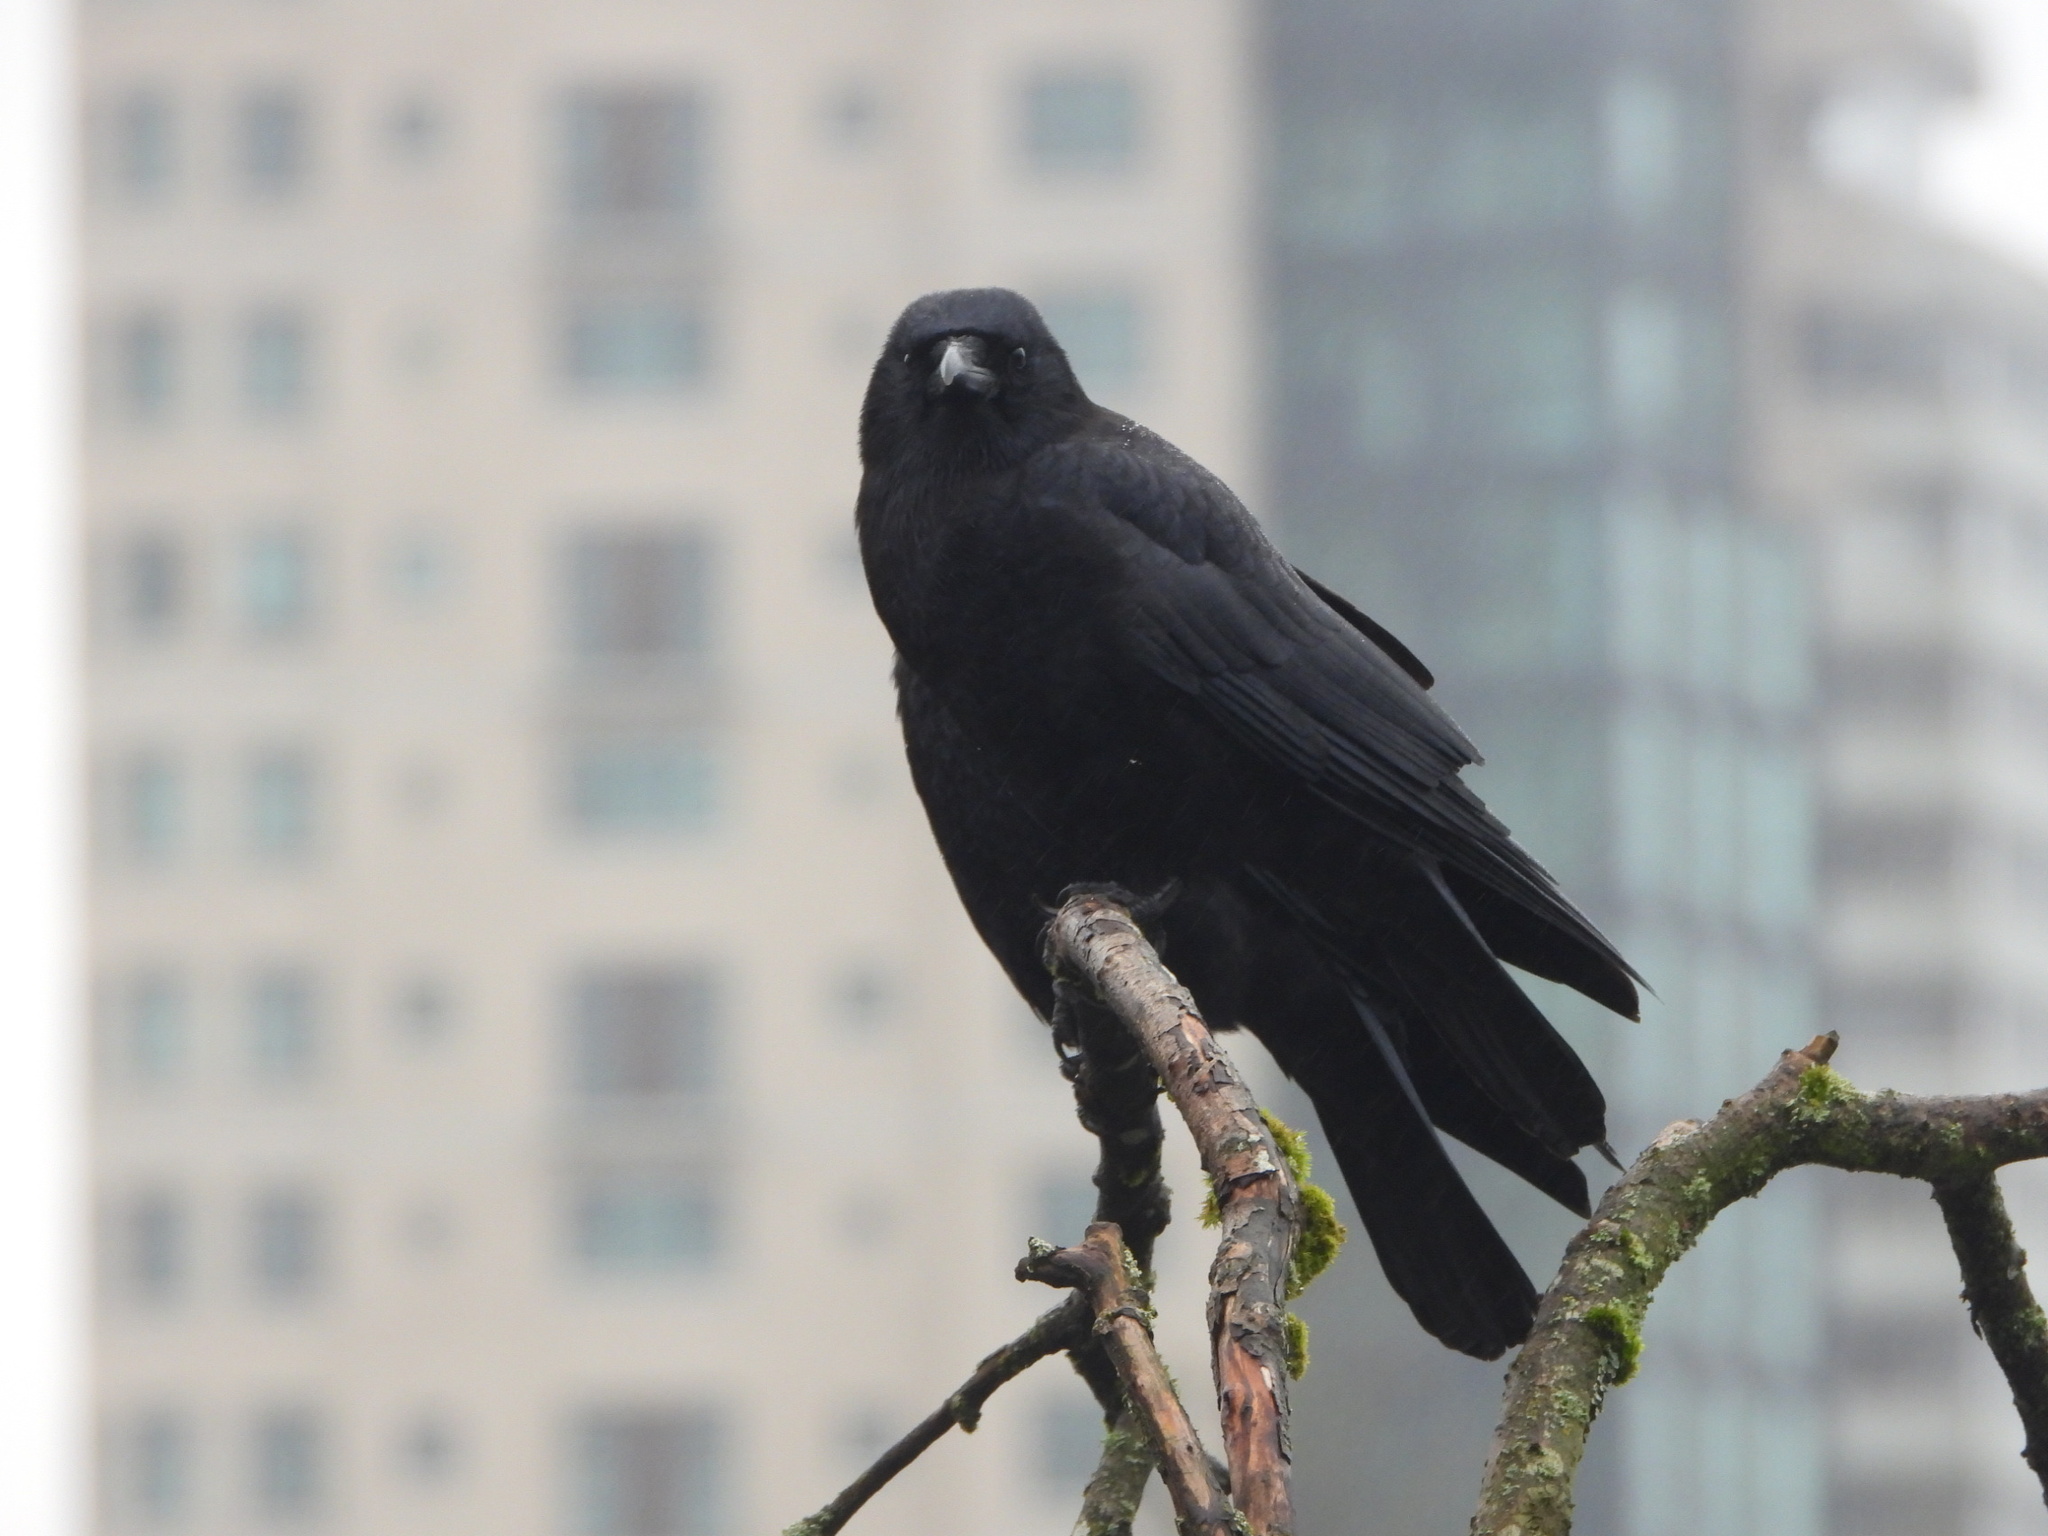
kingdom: Animalia
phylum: Chordata
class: Aves
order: Passeriformes
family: Corvidae
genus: Corvus
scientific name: Corvus brachyrhynchos
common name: American crow
